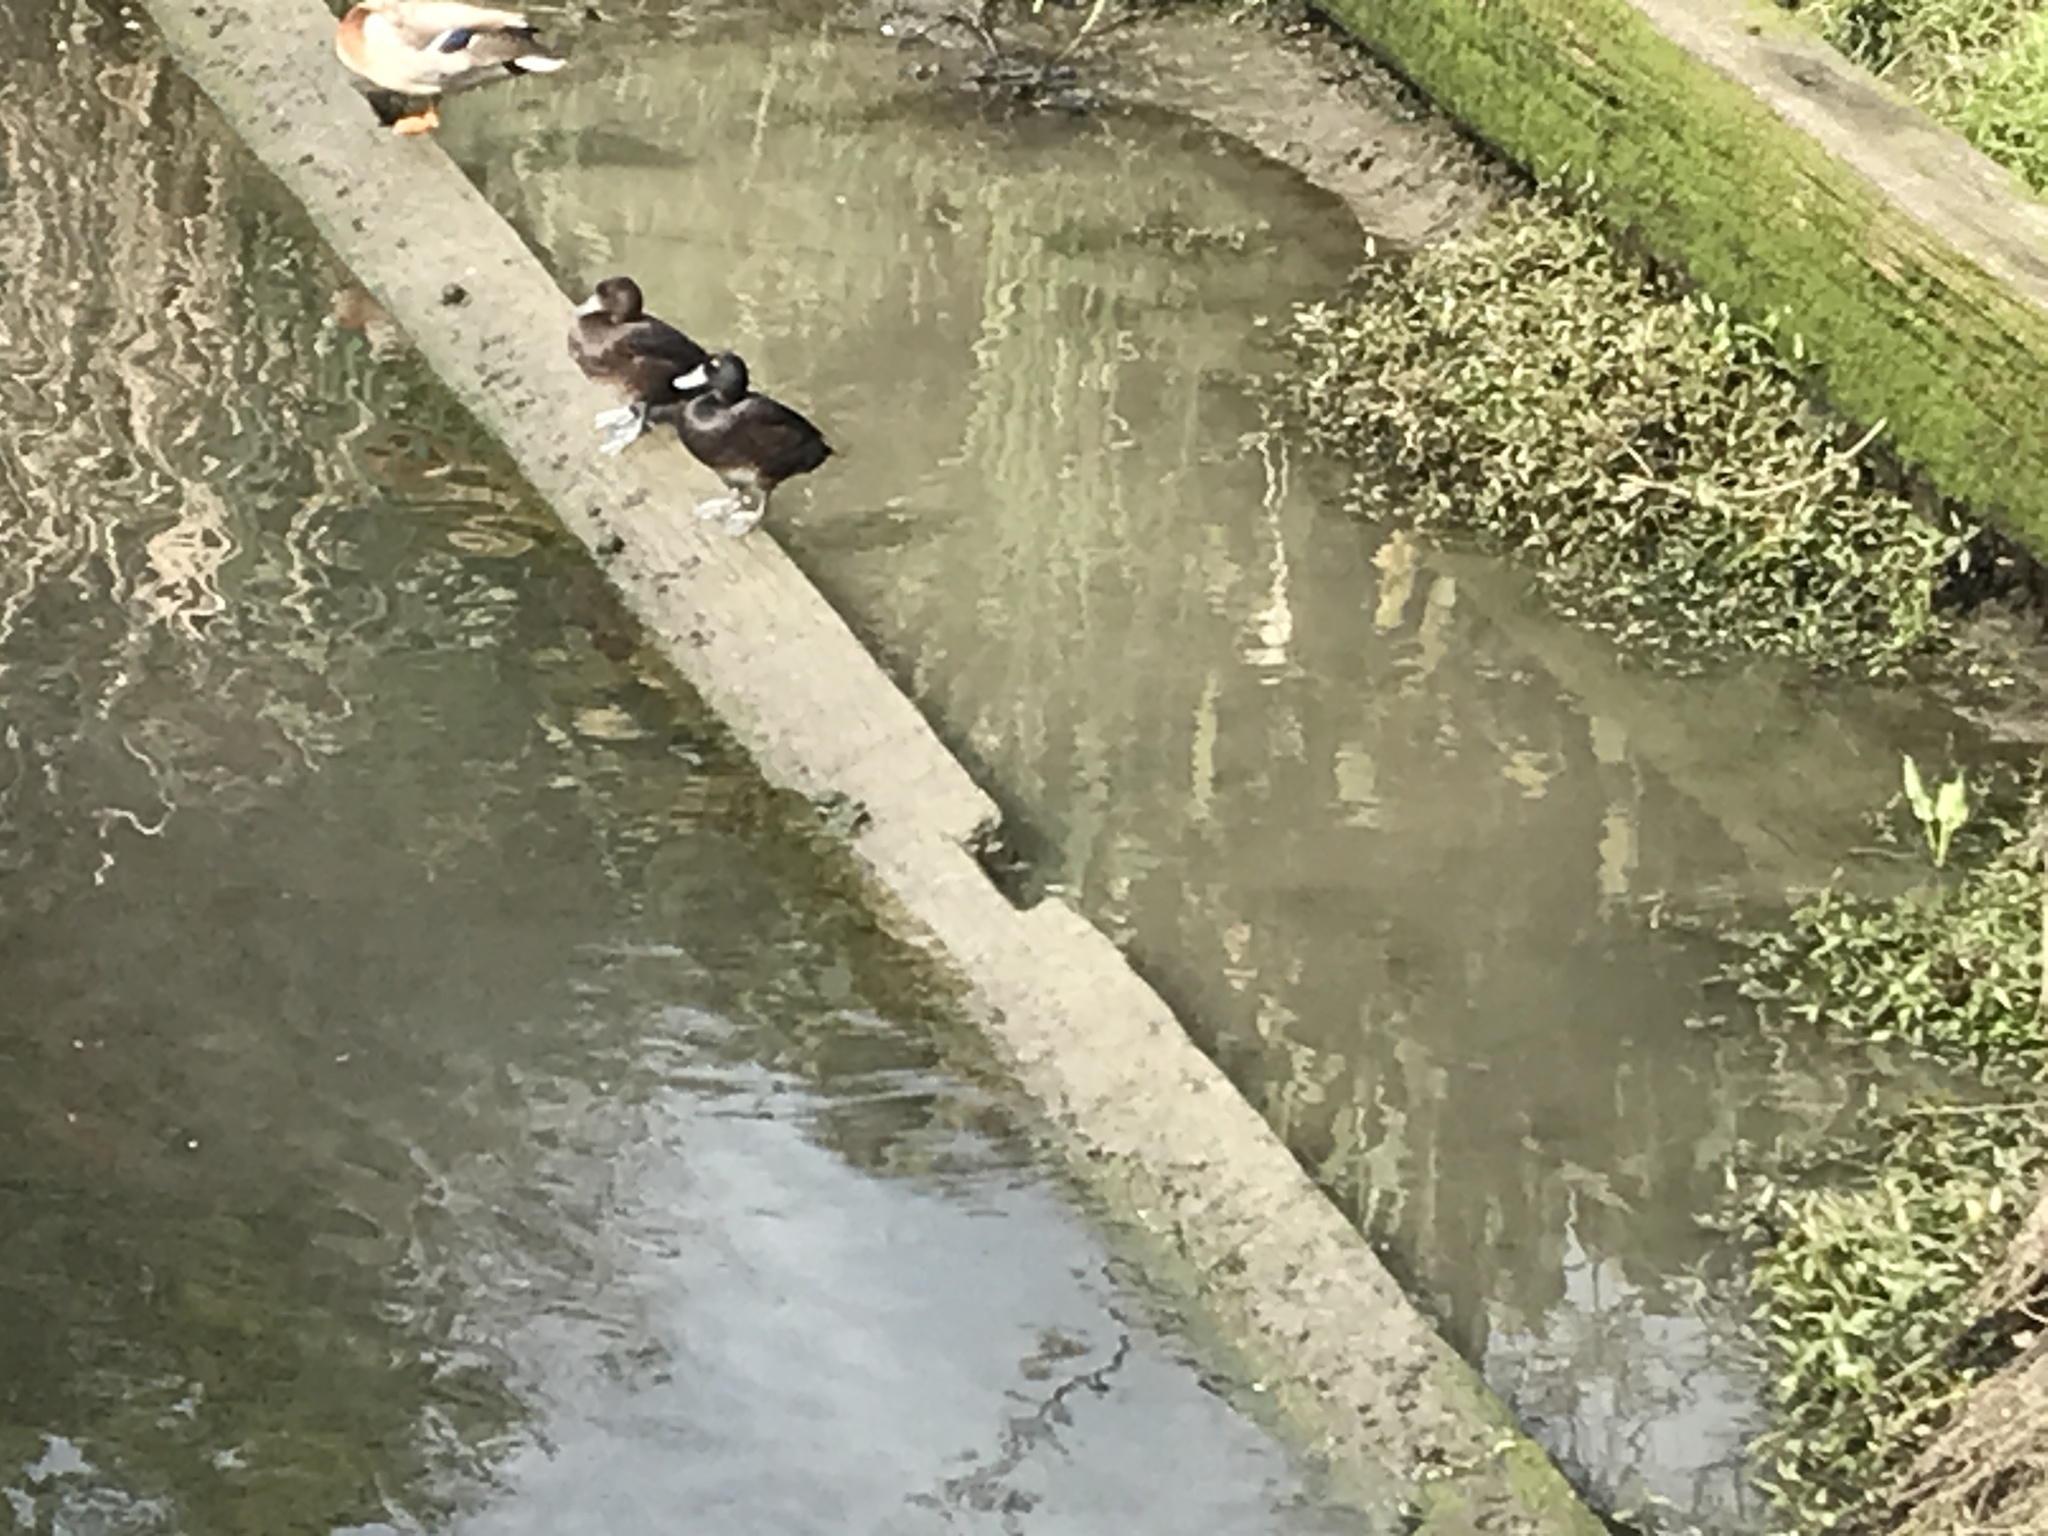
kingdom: Animalia
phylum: Chordata
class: Aves
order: Anseriformes
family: Anatidae
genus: Aythya
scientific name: Aythya novaeseelandiae
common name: New zealand scaup
